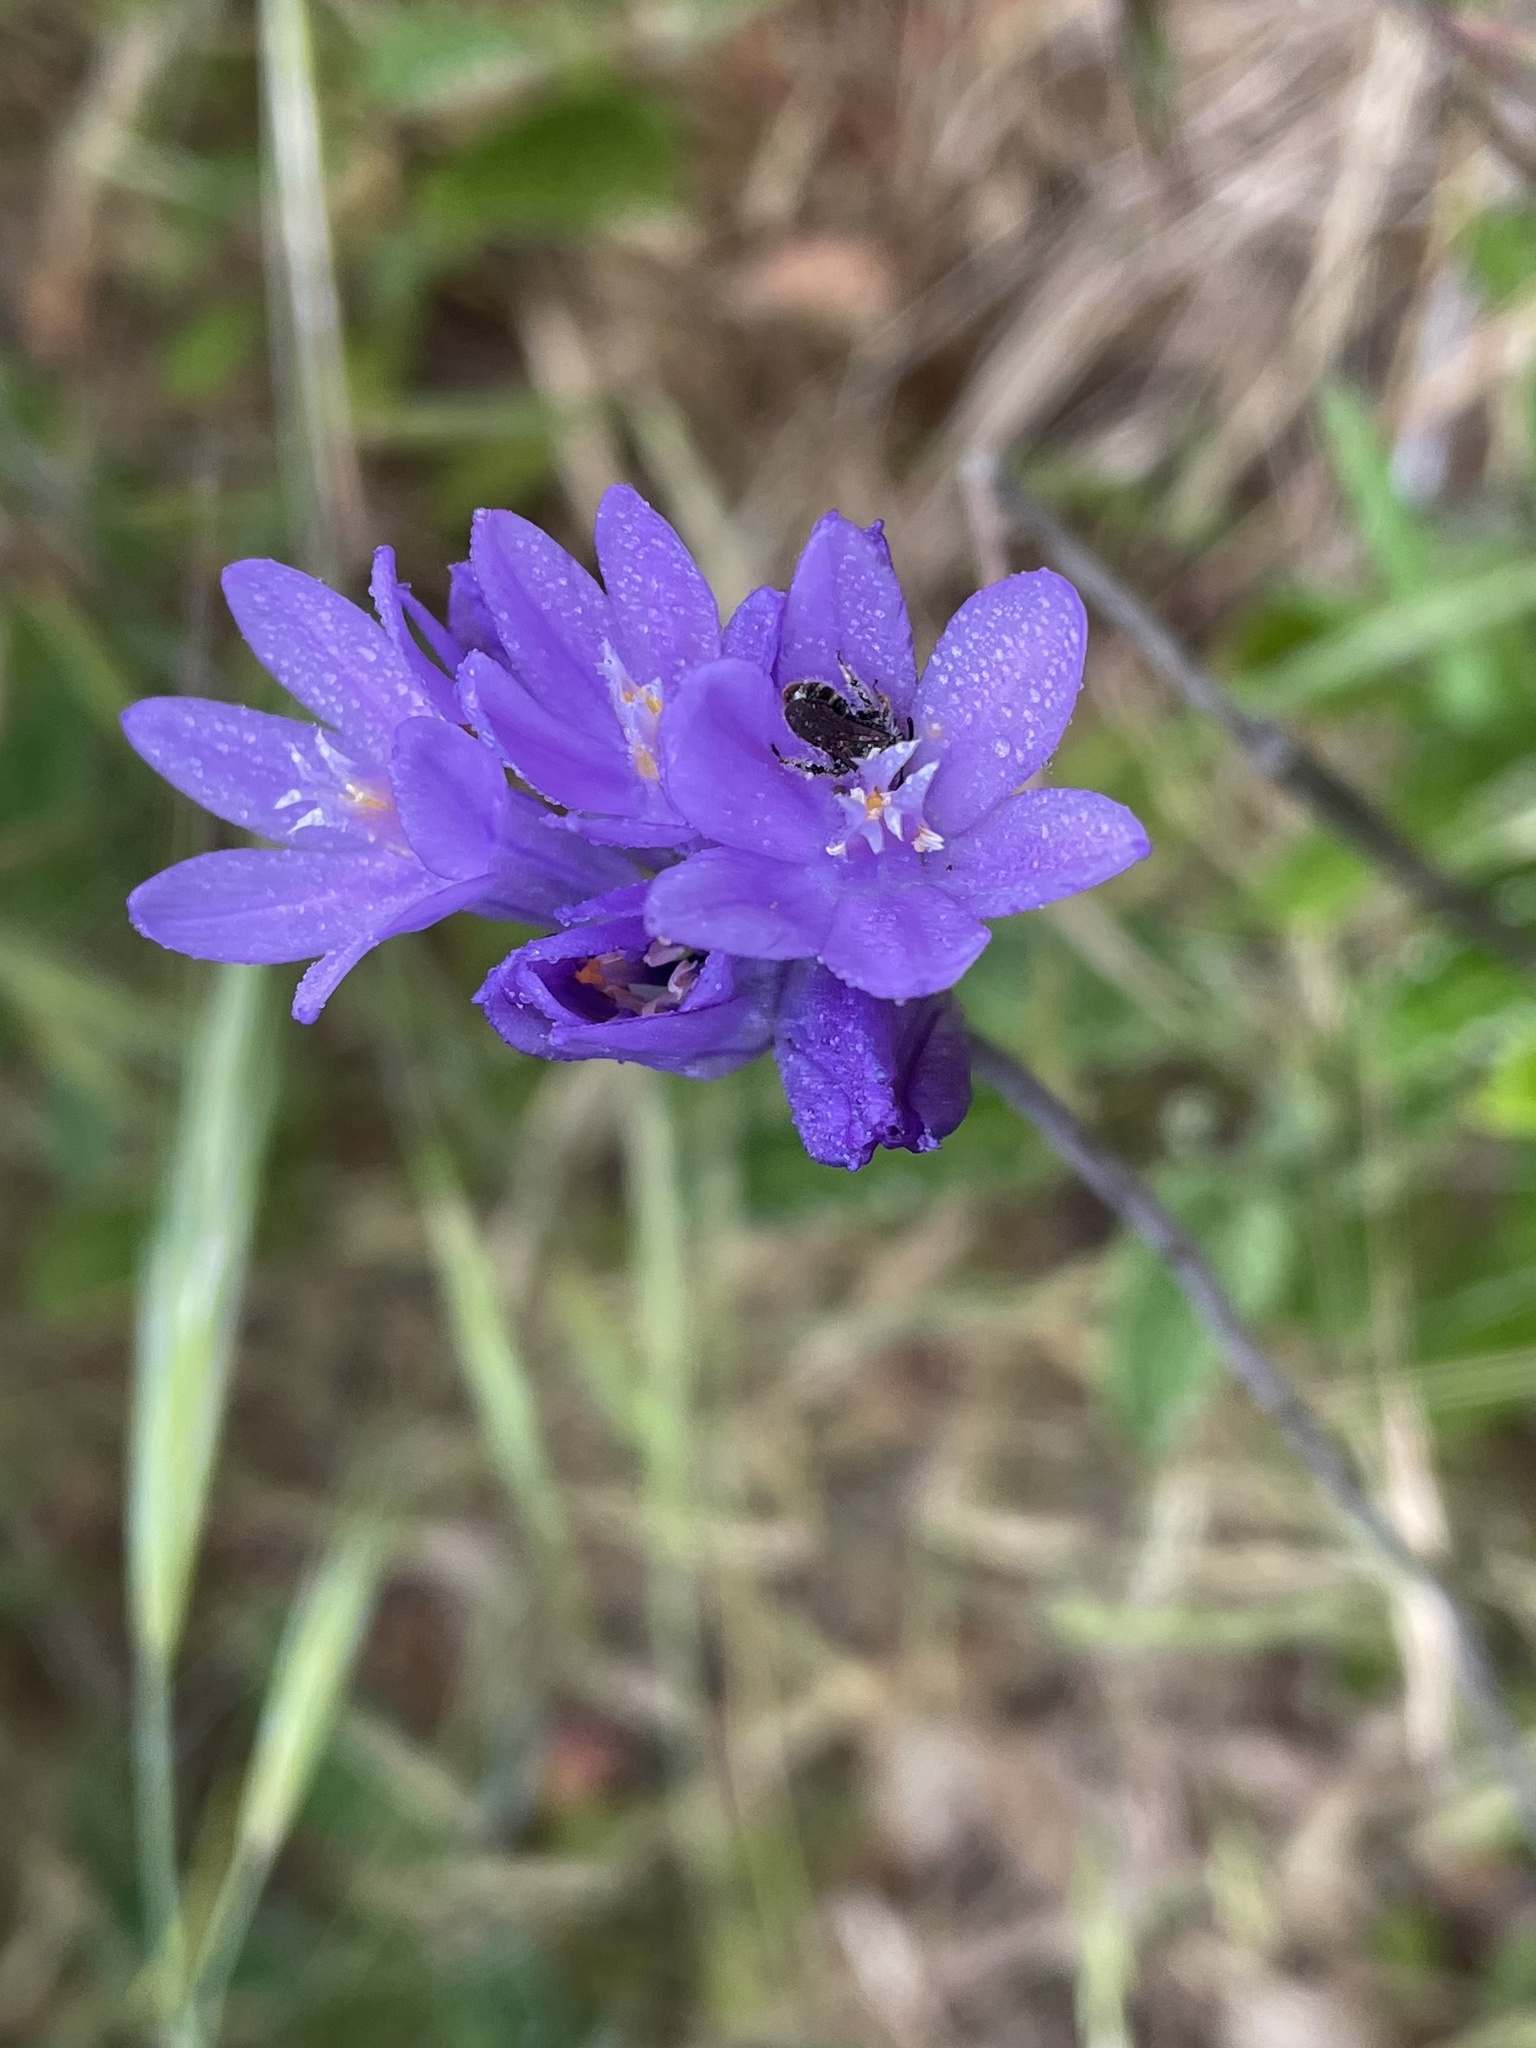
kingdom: Plantae
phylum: Tracheophyta
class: Liliopsida
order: Asparagales
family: Asparagaceae
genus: Dipterostemon
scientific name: Dipterostemon capitatus
